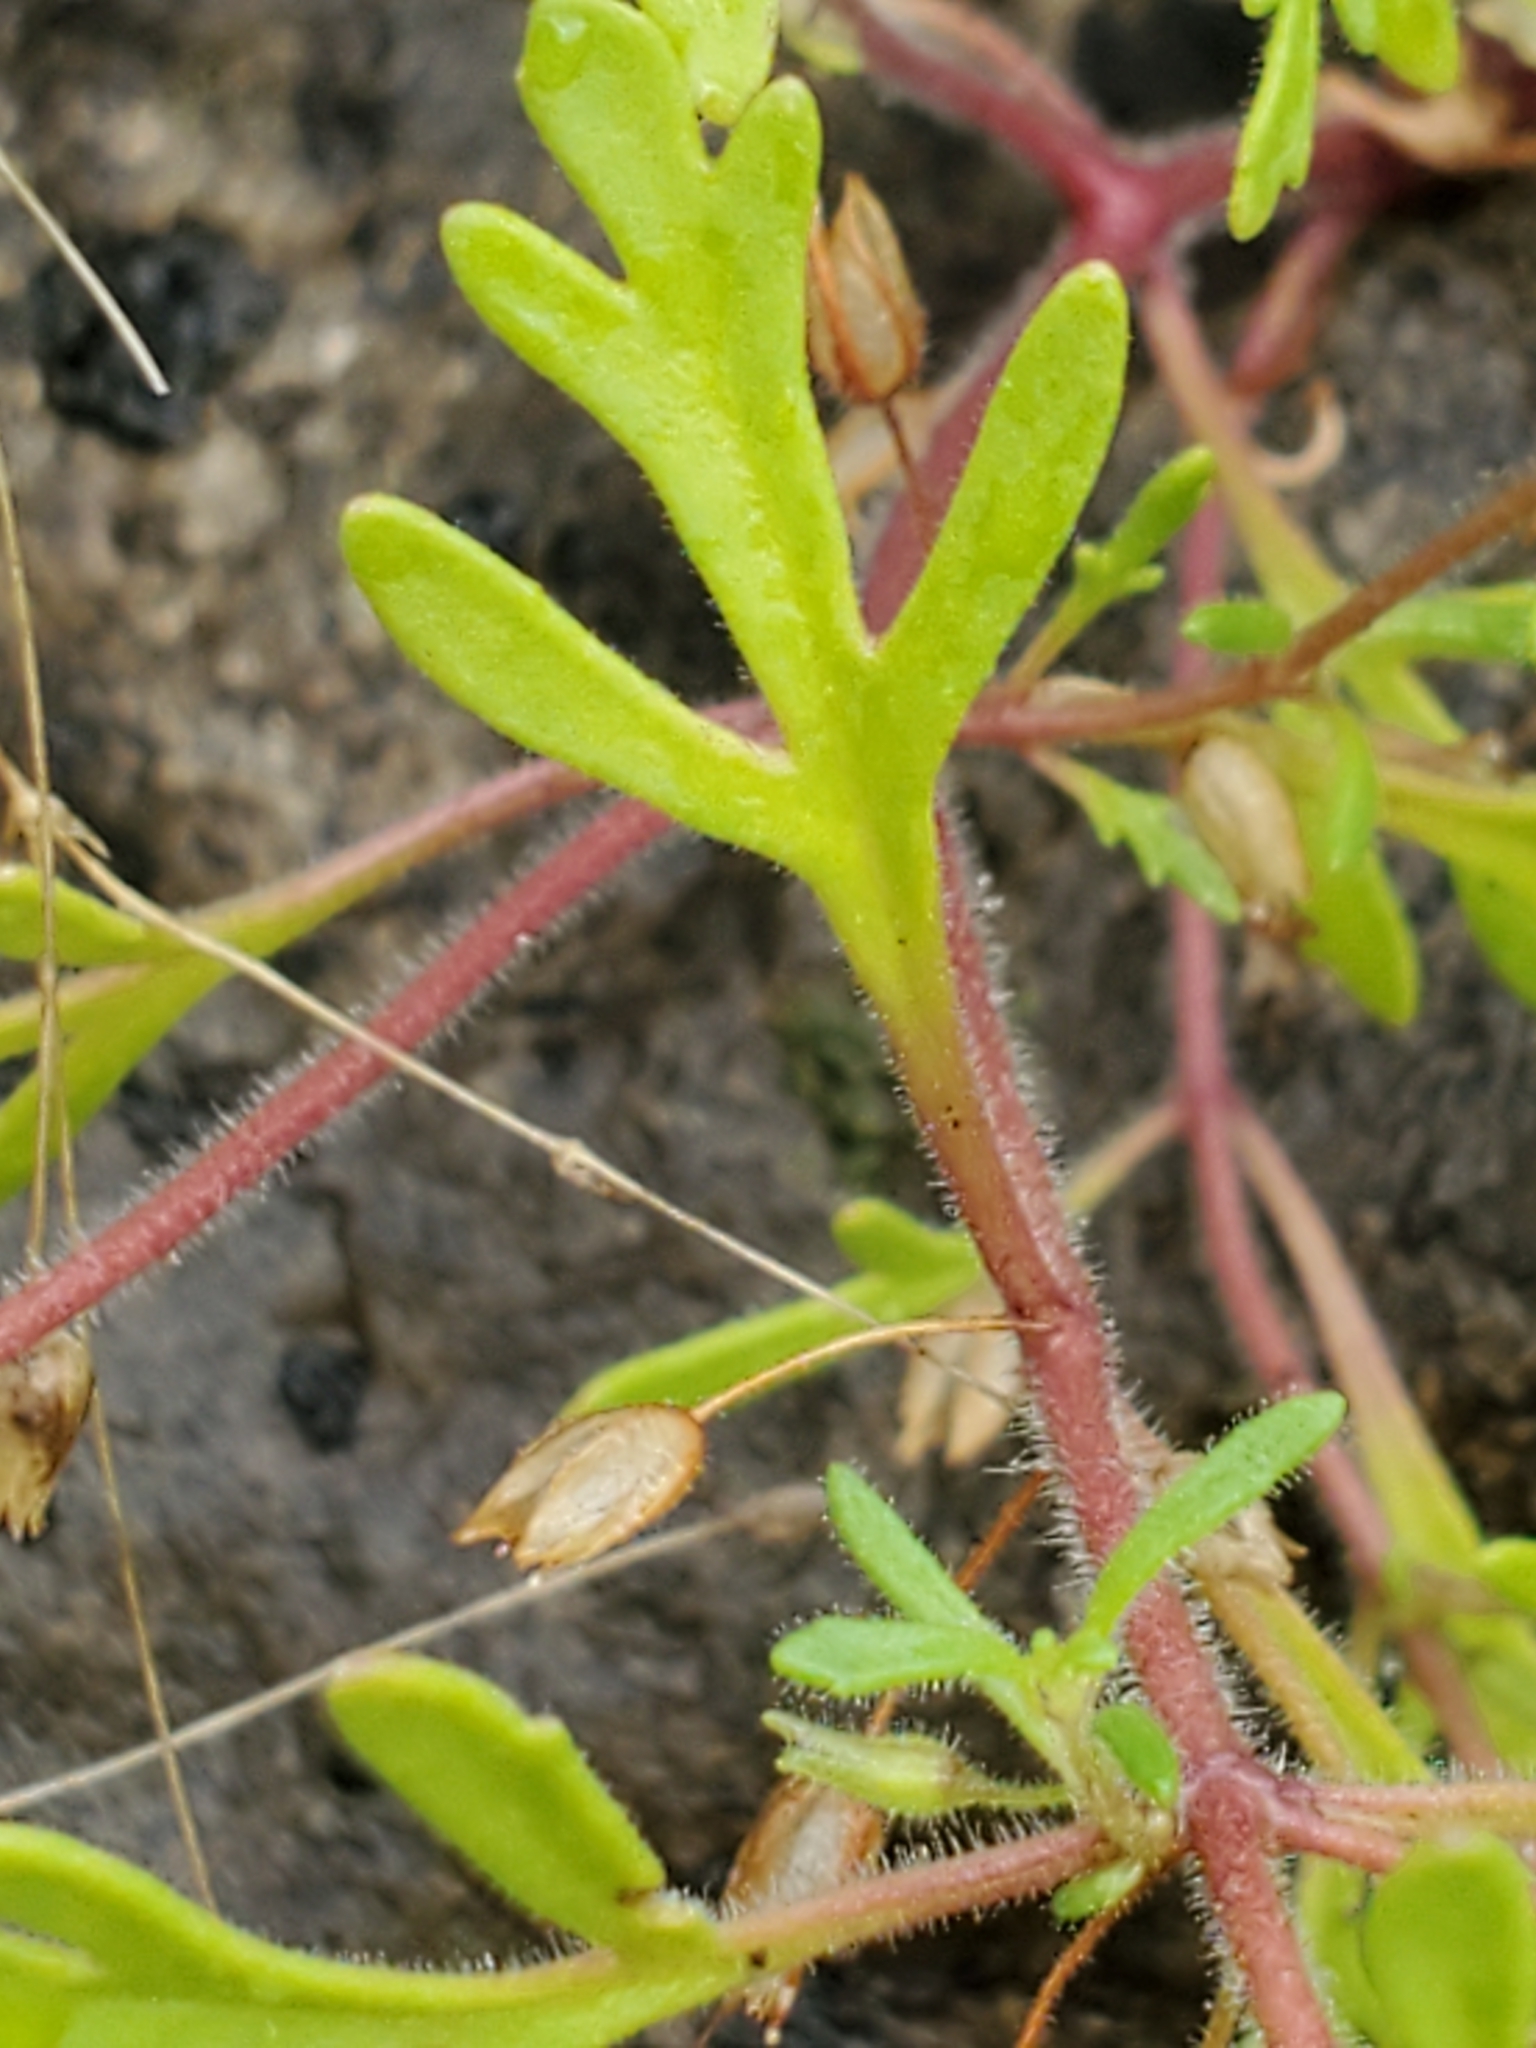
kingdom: Plantae
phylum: Tracheophyta
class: Magnoliopsida
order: Lamiales
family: Plantaginaceae
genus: Leucospora
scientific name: Leucospora multifida
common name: Narrow-leaf paleseed
